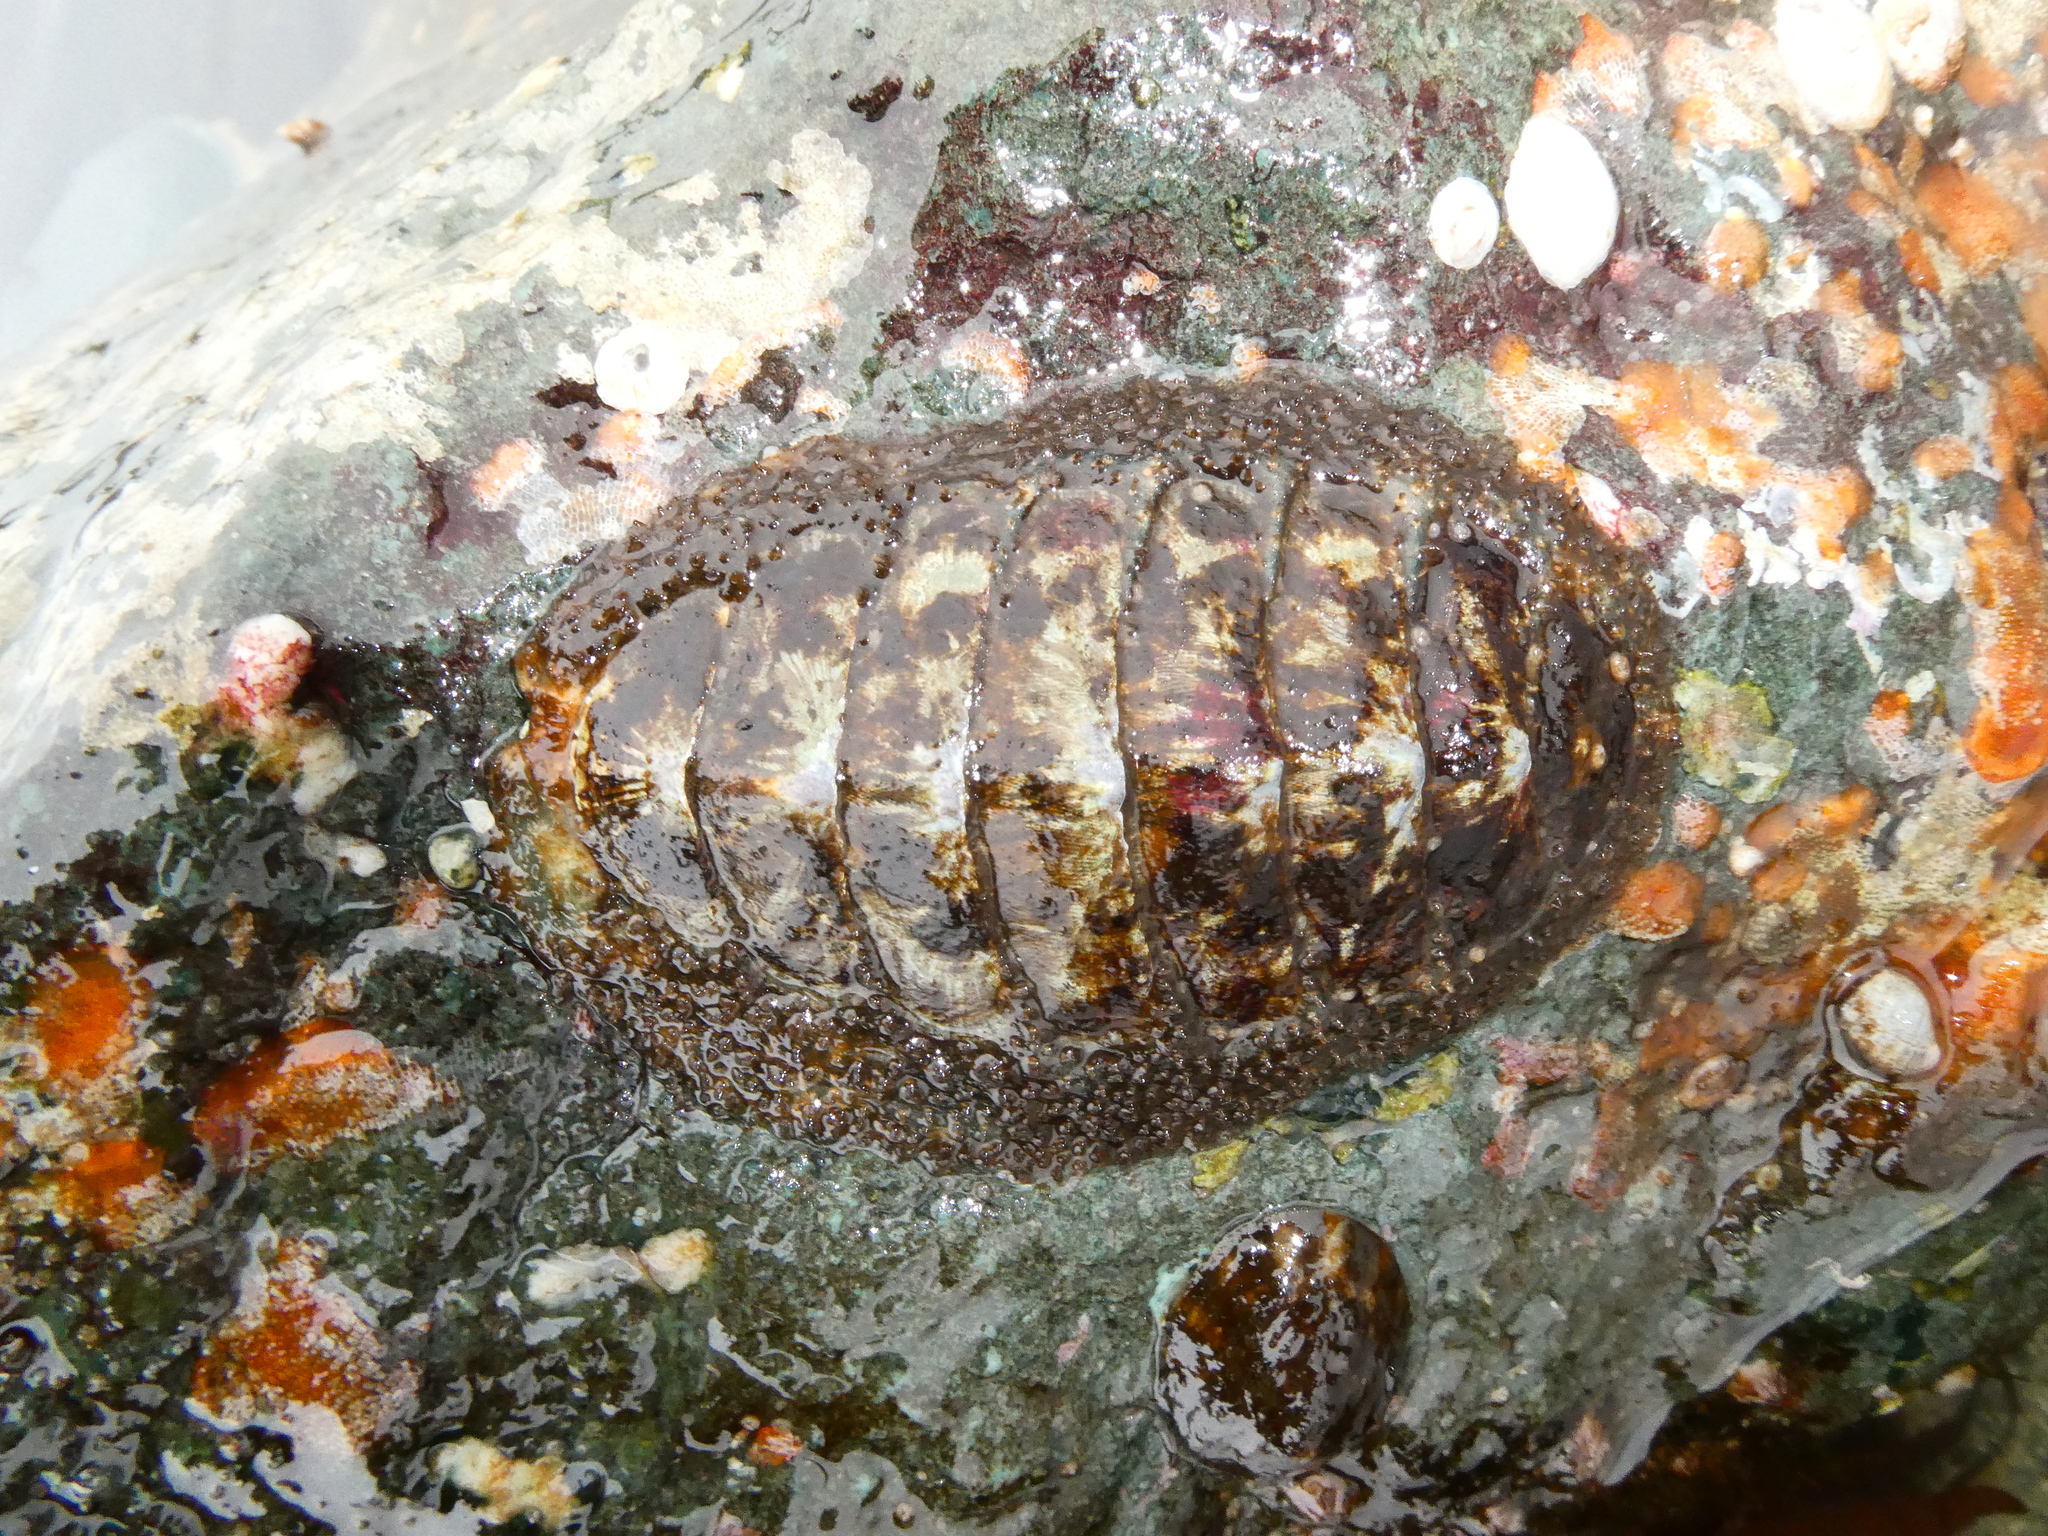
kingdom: Animalia
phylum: Mollusca
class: Polyplacophora
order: Chitonida
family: Mopaliidae
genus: Mopalia
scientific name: Mopalia lignosa
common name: Woody chiton
